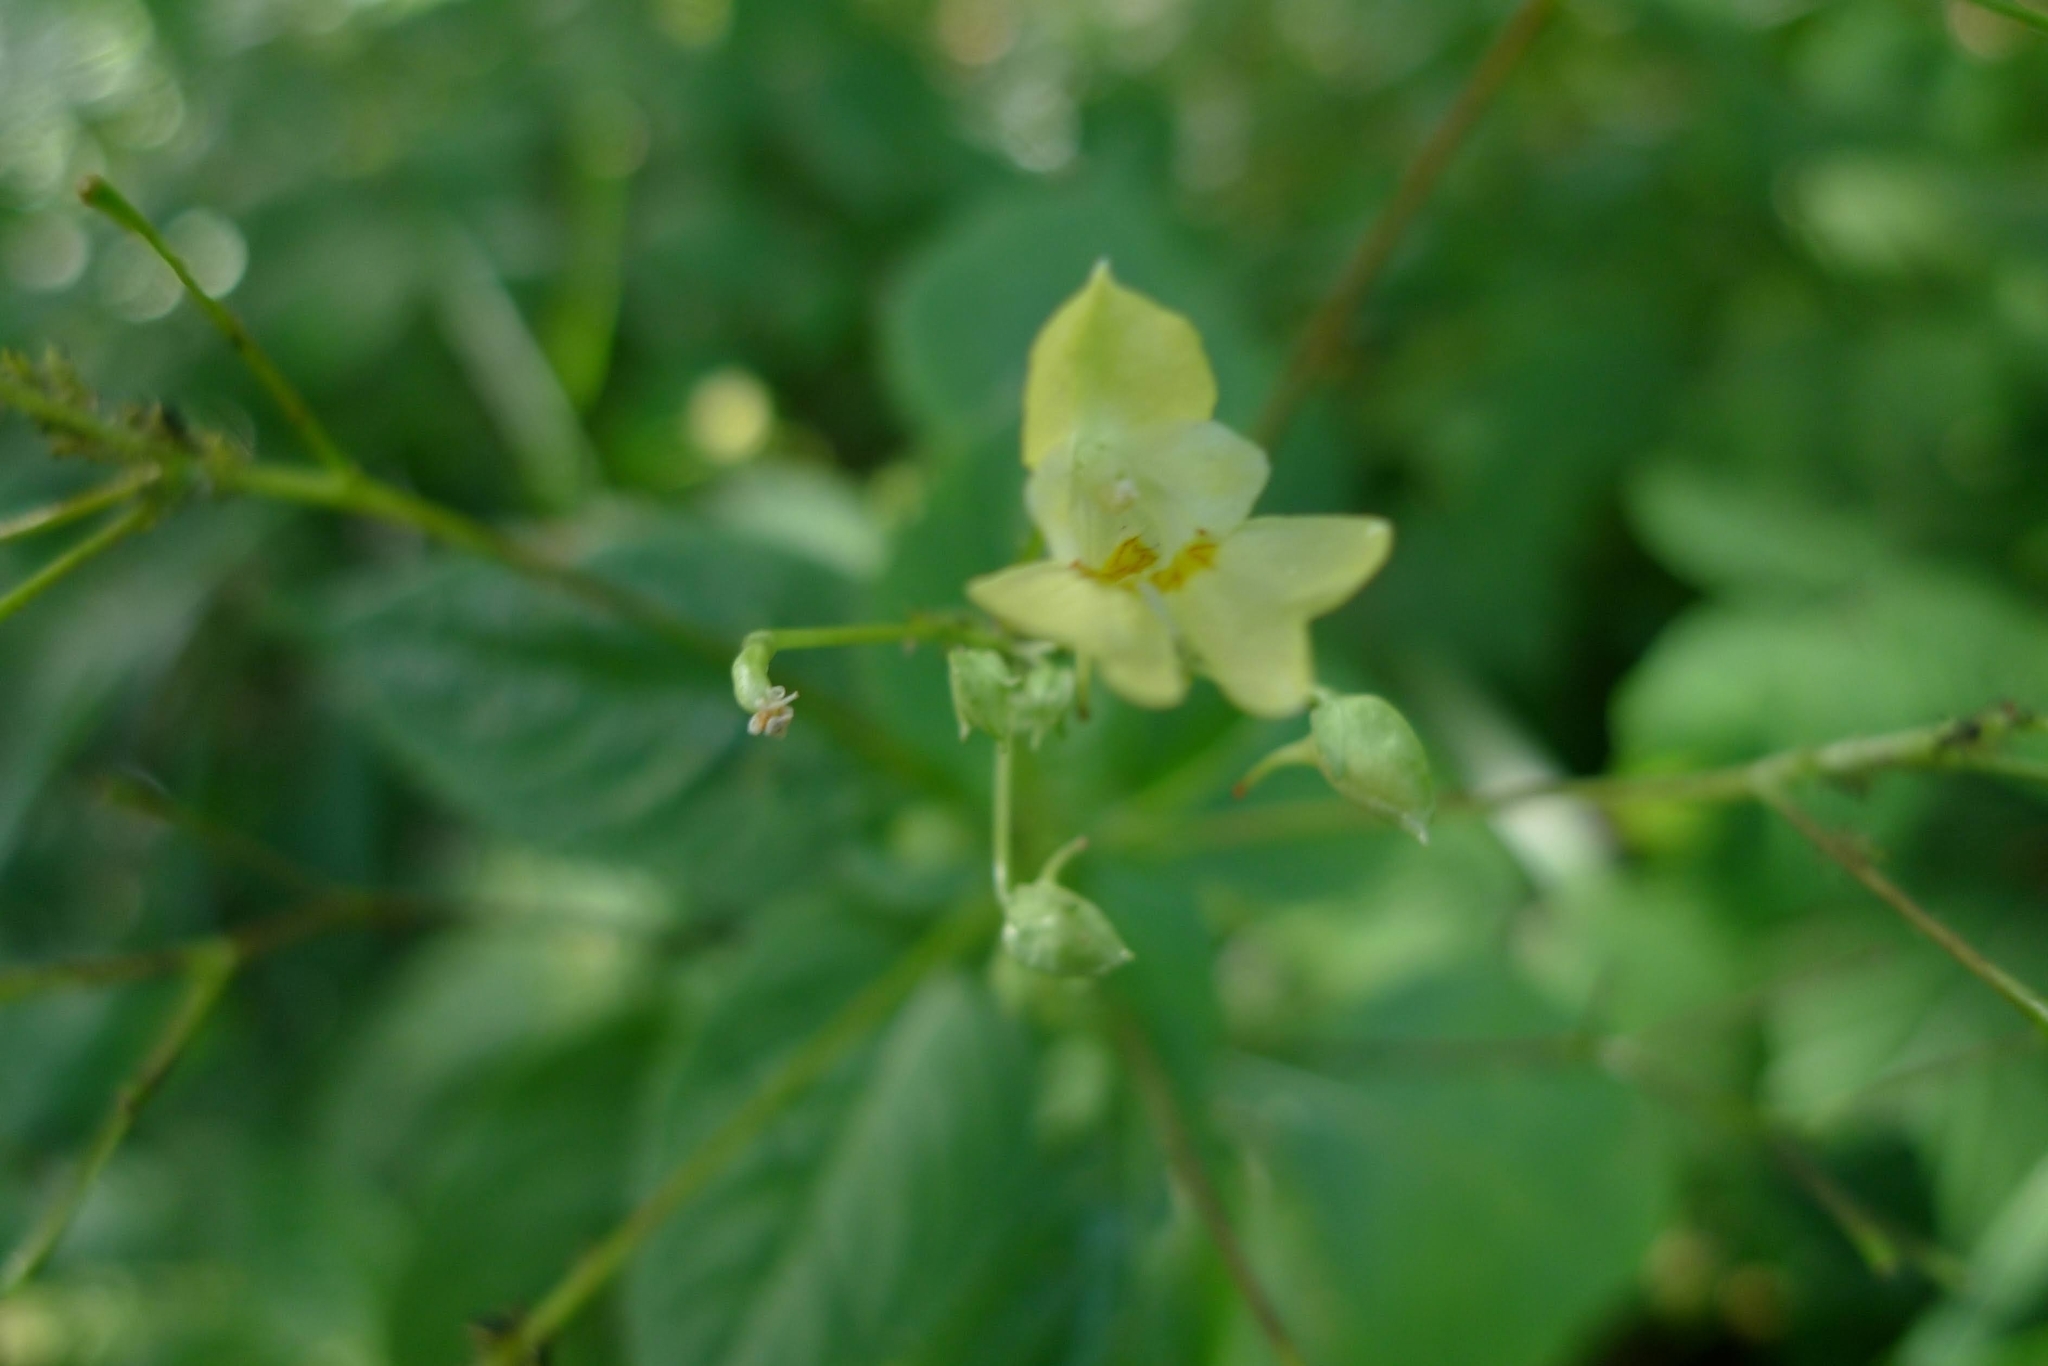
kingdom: Plantae
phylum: Tracheophyta
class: Magnoliopsida
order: Ericales
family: Balsaminaceae
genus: Impatiens
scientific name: Impatiens parviflora
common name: Small balsam
